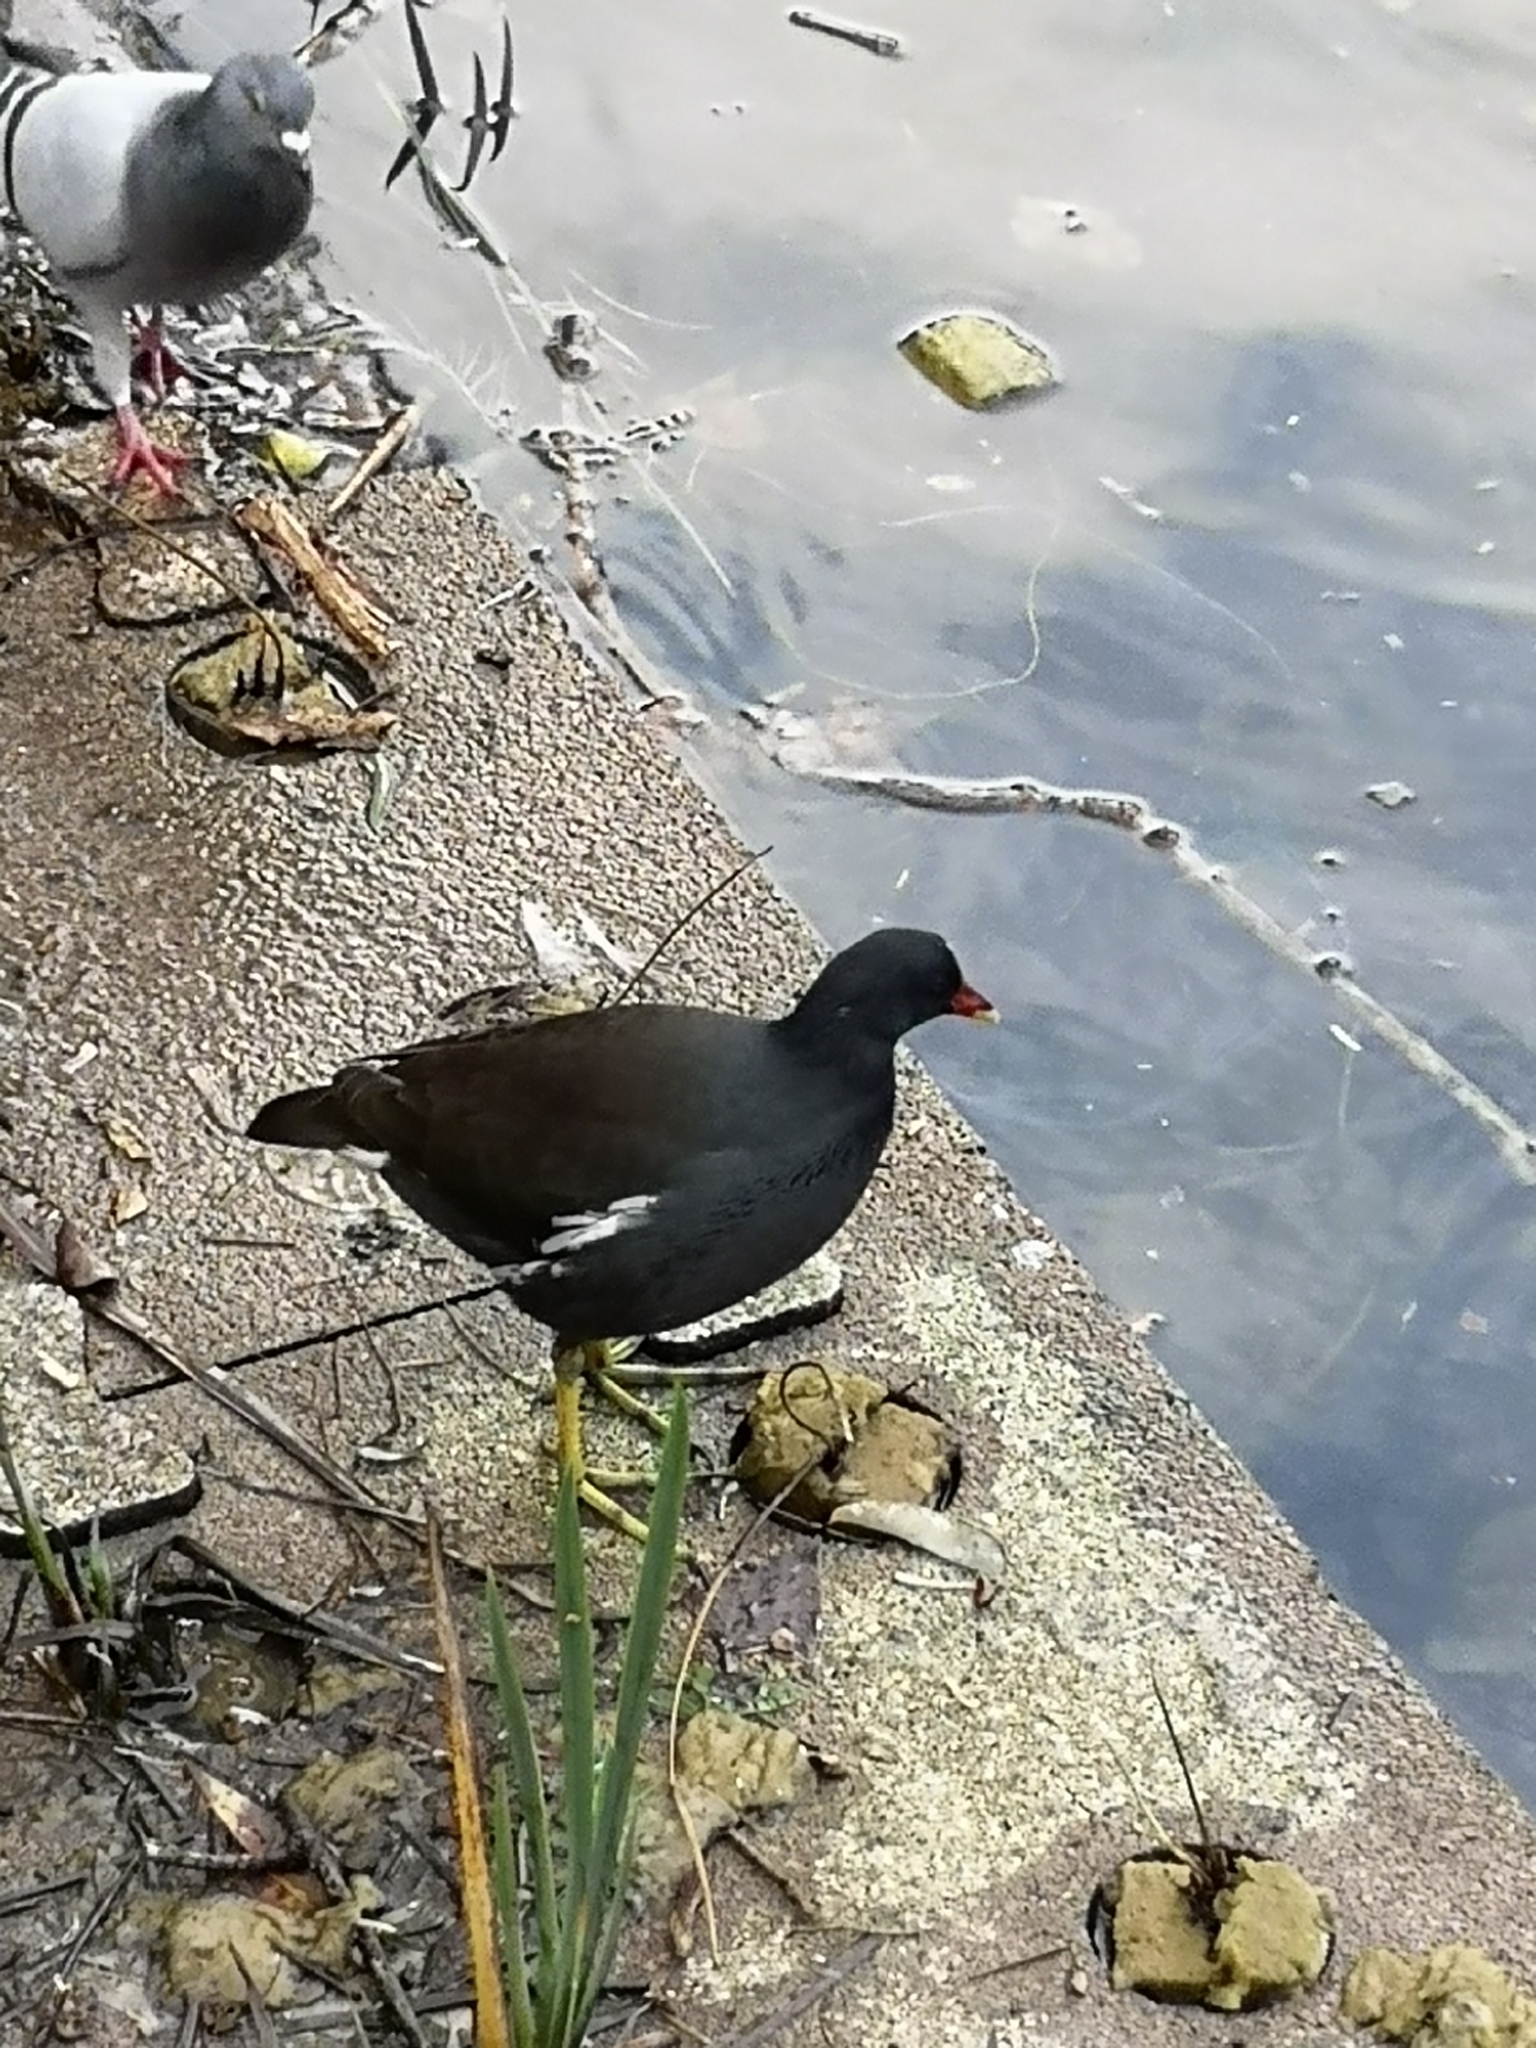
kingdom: Animalia
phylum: Chordata
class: Aves
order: Gruiformes
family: Rallidae
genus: Gallinula
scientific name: Gallinula chloropus
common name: Common moorhen
